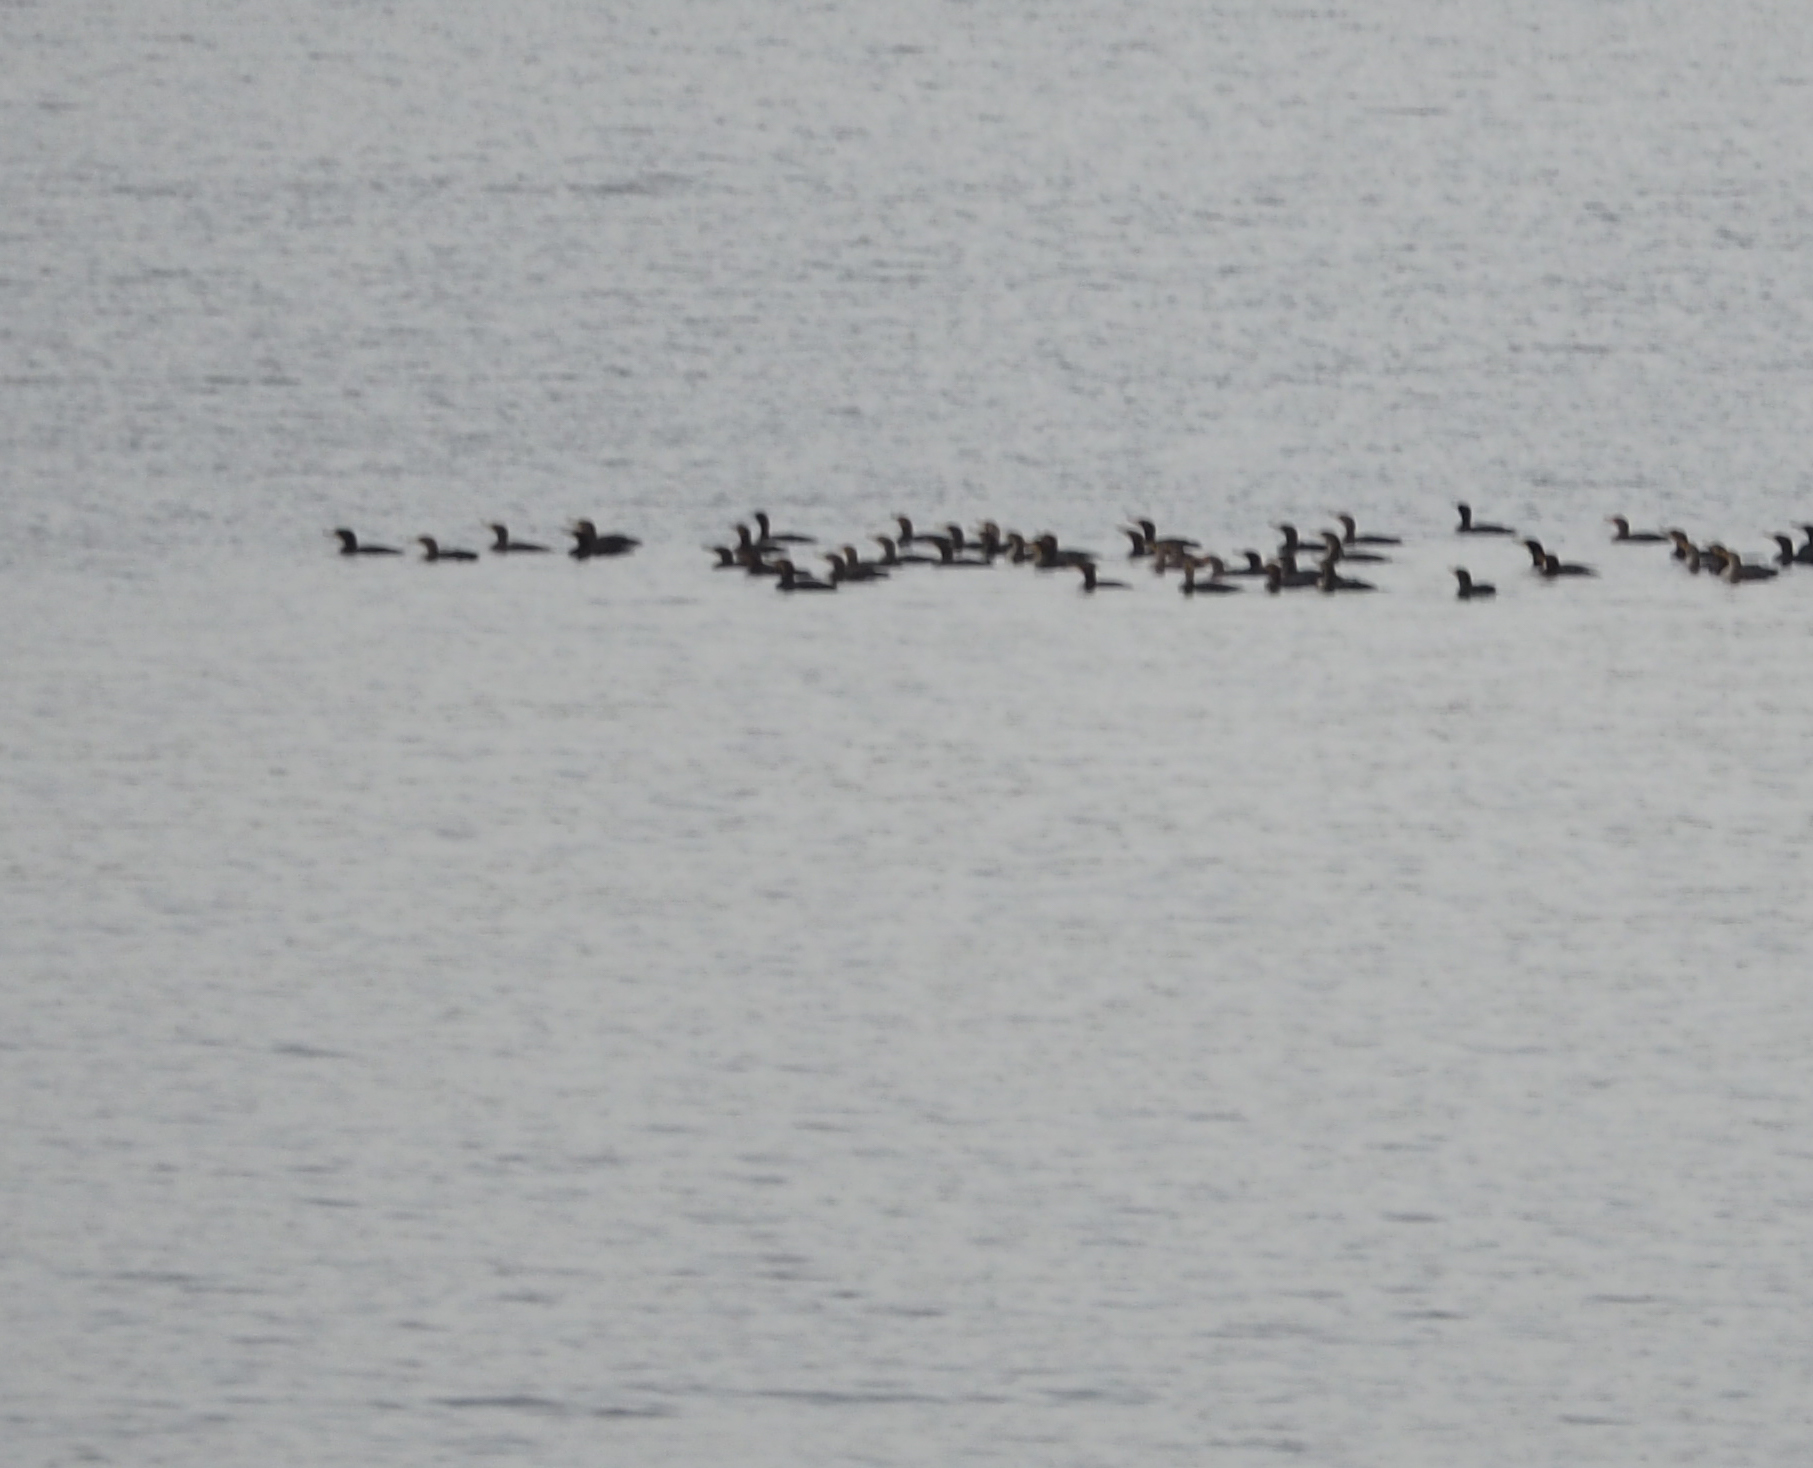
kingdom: Animalia
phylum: Chordata
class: Aves
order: Suliformes
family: Phalacrocoracidae
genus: Phalacrocorax
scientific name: Phalacrocorax auritus
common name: Double-crested cormorant
